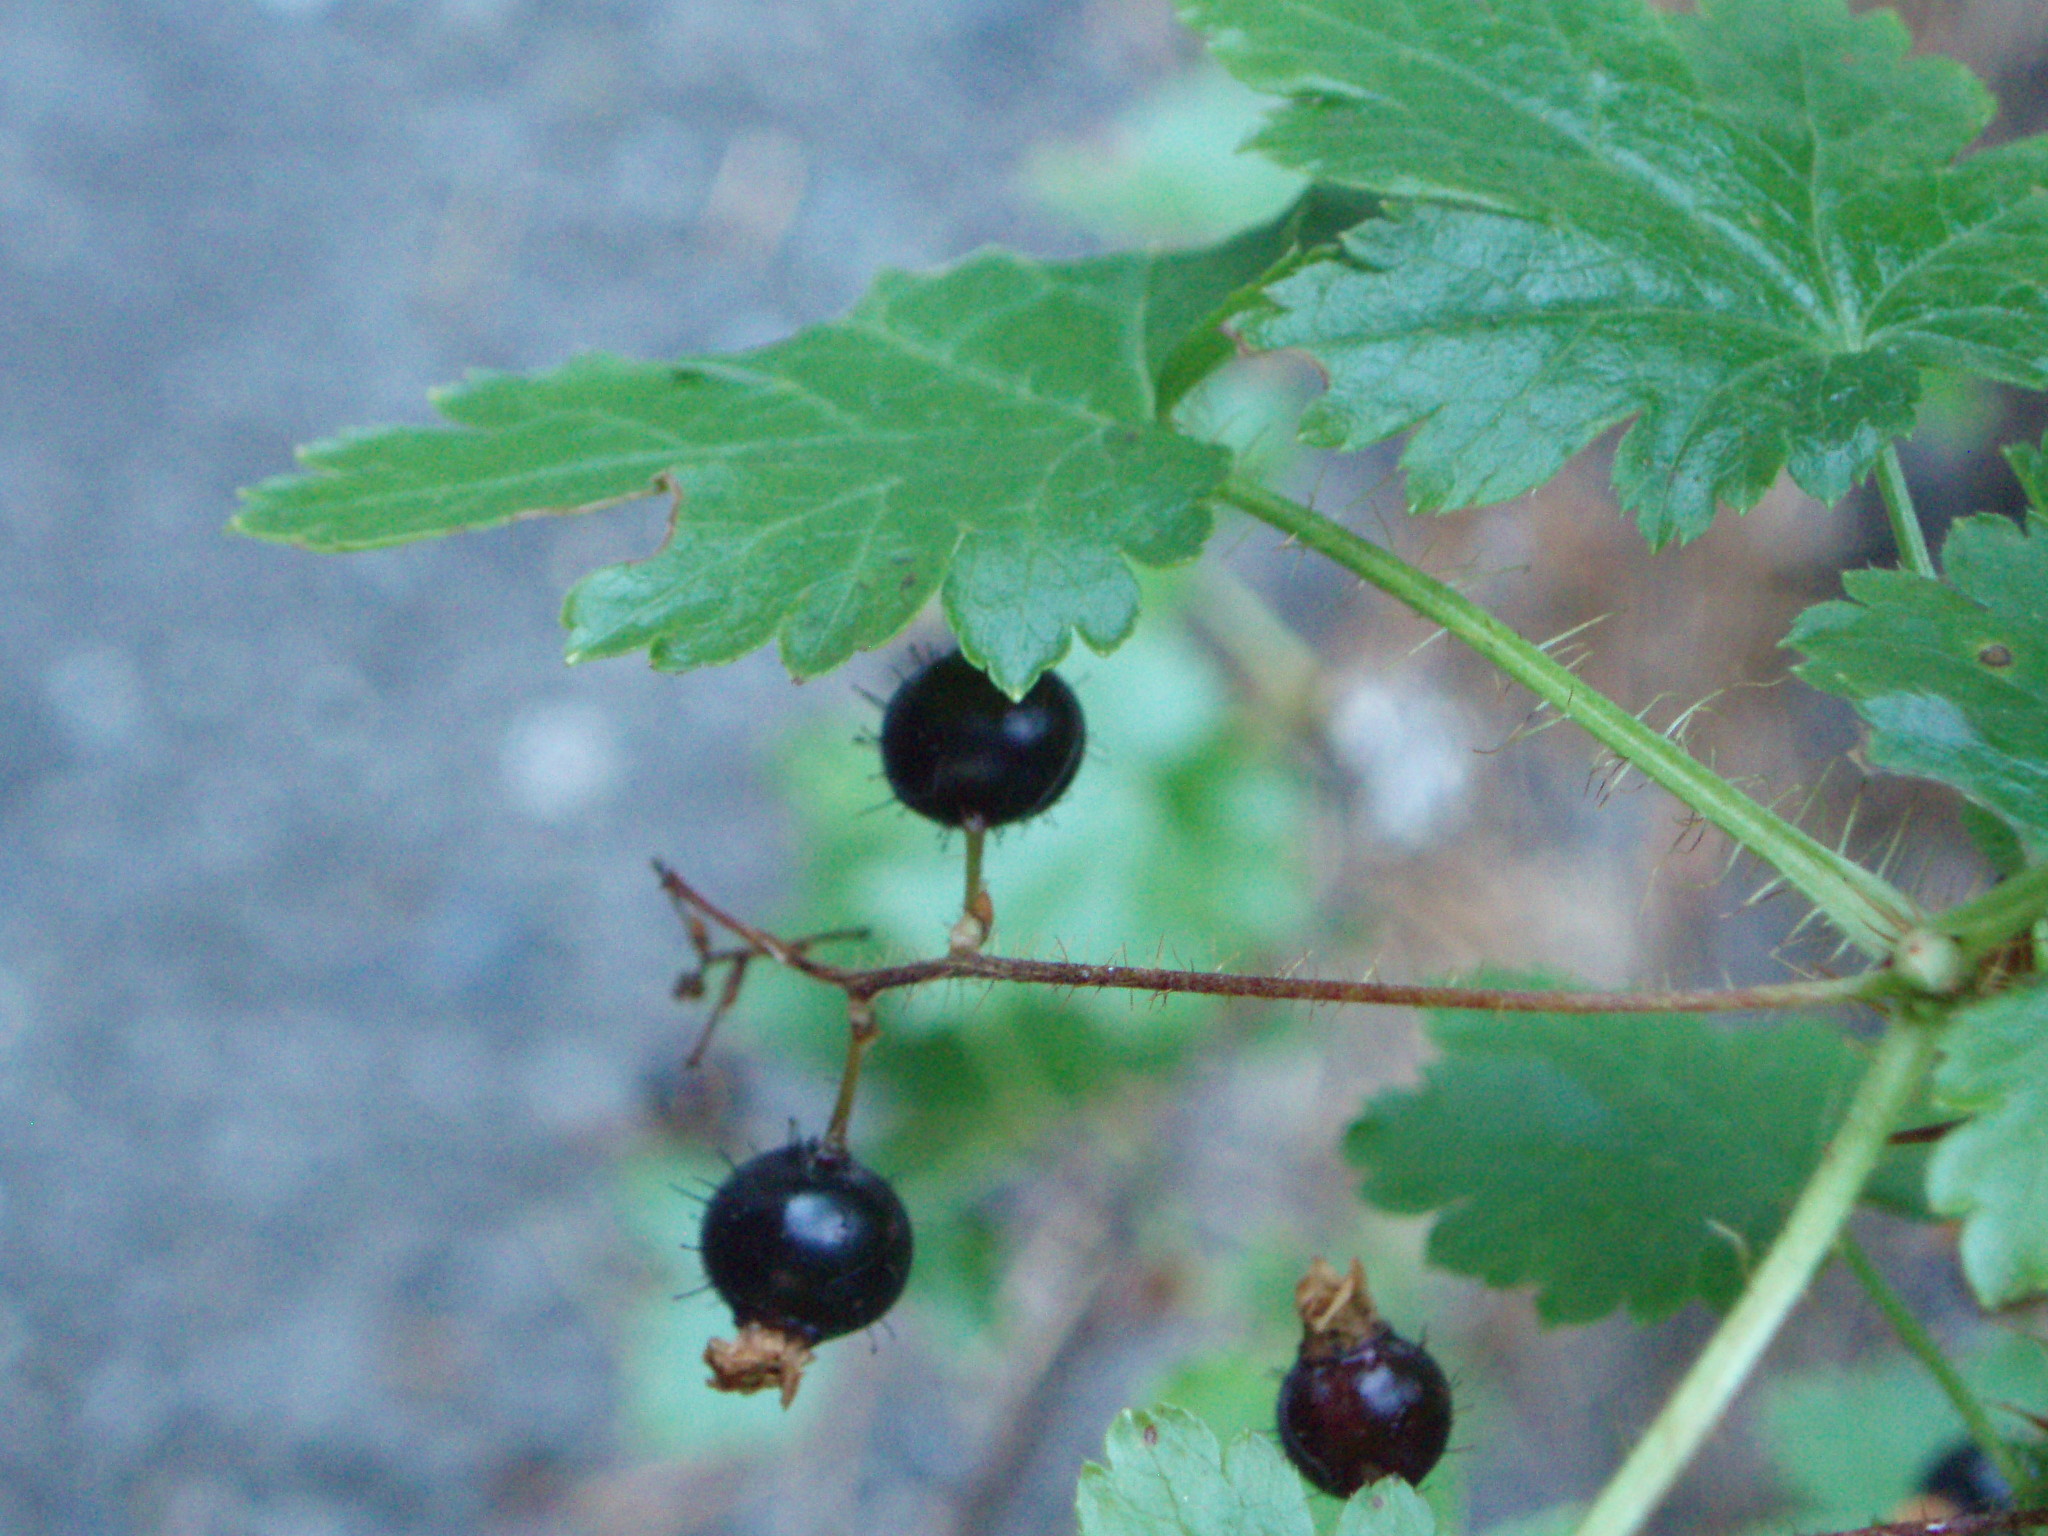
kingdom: Plantae
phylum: Tracheophyta
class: Magnoliopsida
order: Saxifragales
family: Grossulariaceae
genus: Ribes
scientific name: Ribes lacustre
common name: Black gooseberry
